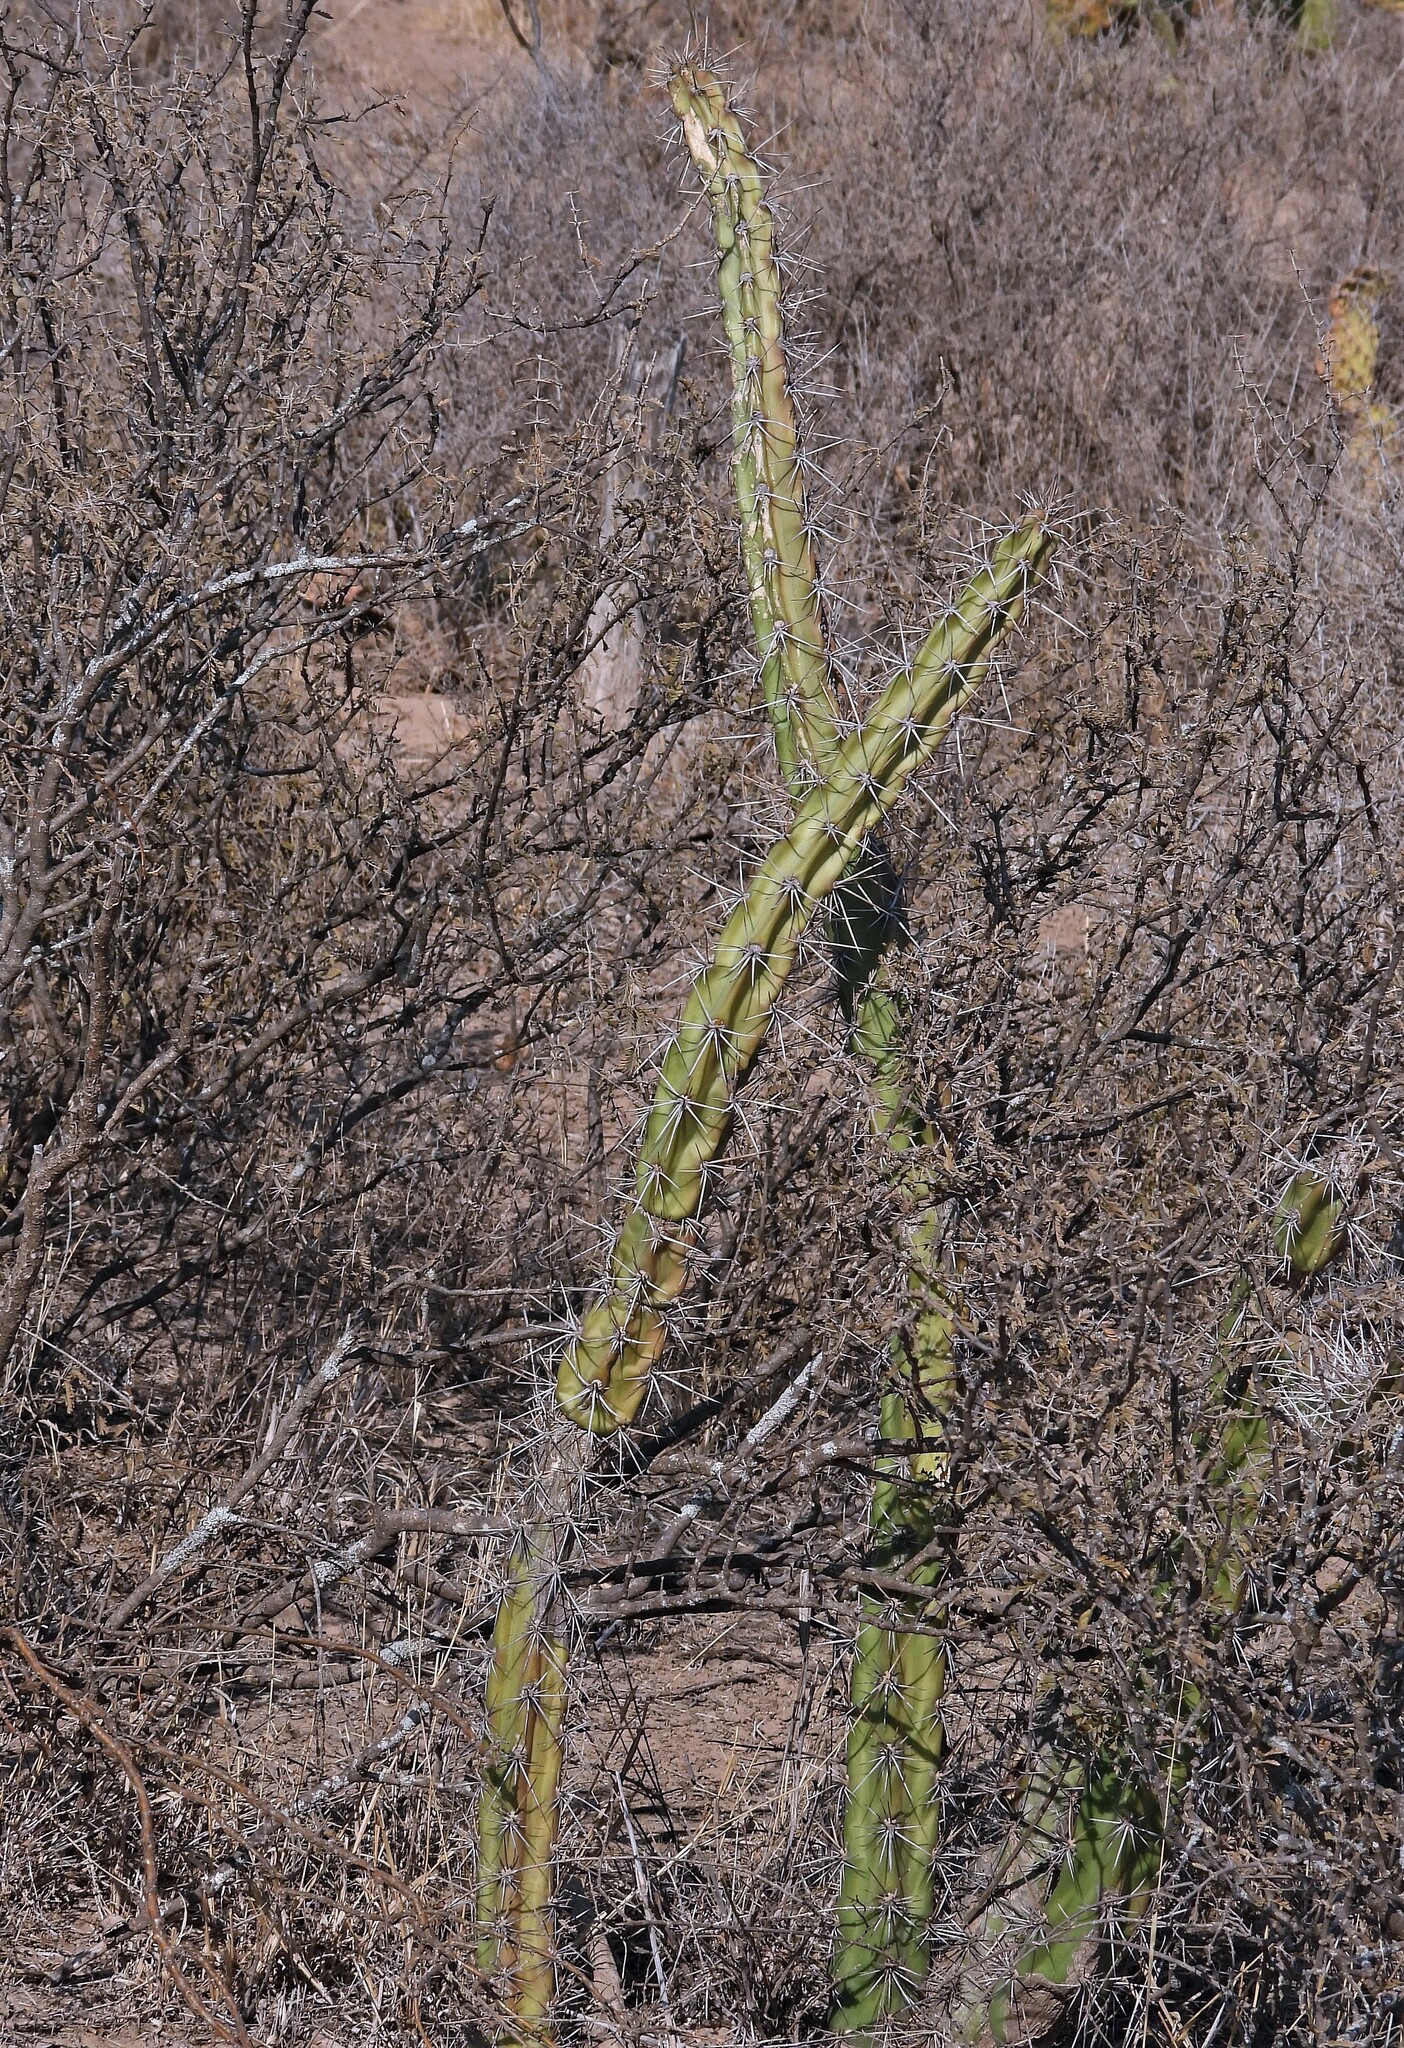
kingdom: Plantae
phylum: Tracheophyta
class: Magnoliopsida
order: Caryophyllales
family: Cactaceae
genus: Harrisia
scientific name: Harrisia pomanensis
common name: Midnight-lady
